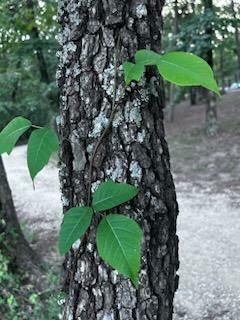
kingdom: Plantae
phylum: Tracheophyta
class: Magnoliopsida
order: Sapindales
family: Anacardiaceae
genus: Toxicodendron
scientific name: Toxicodendron radicans
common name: Poison ivy
